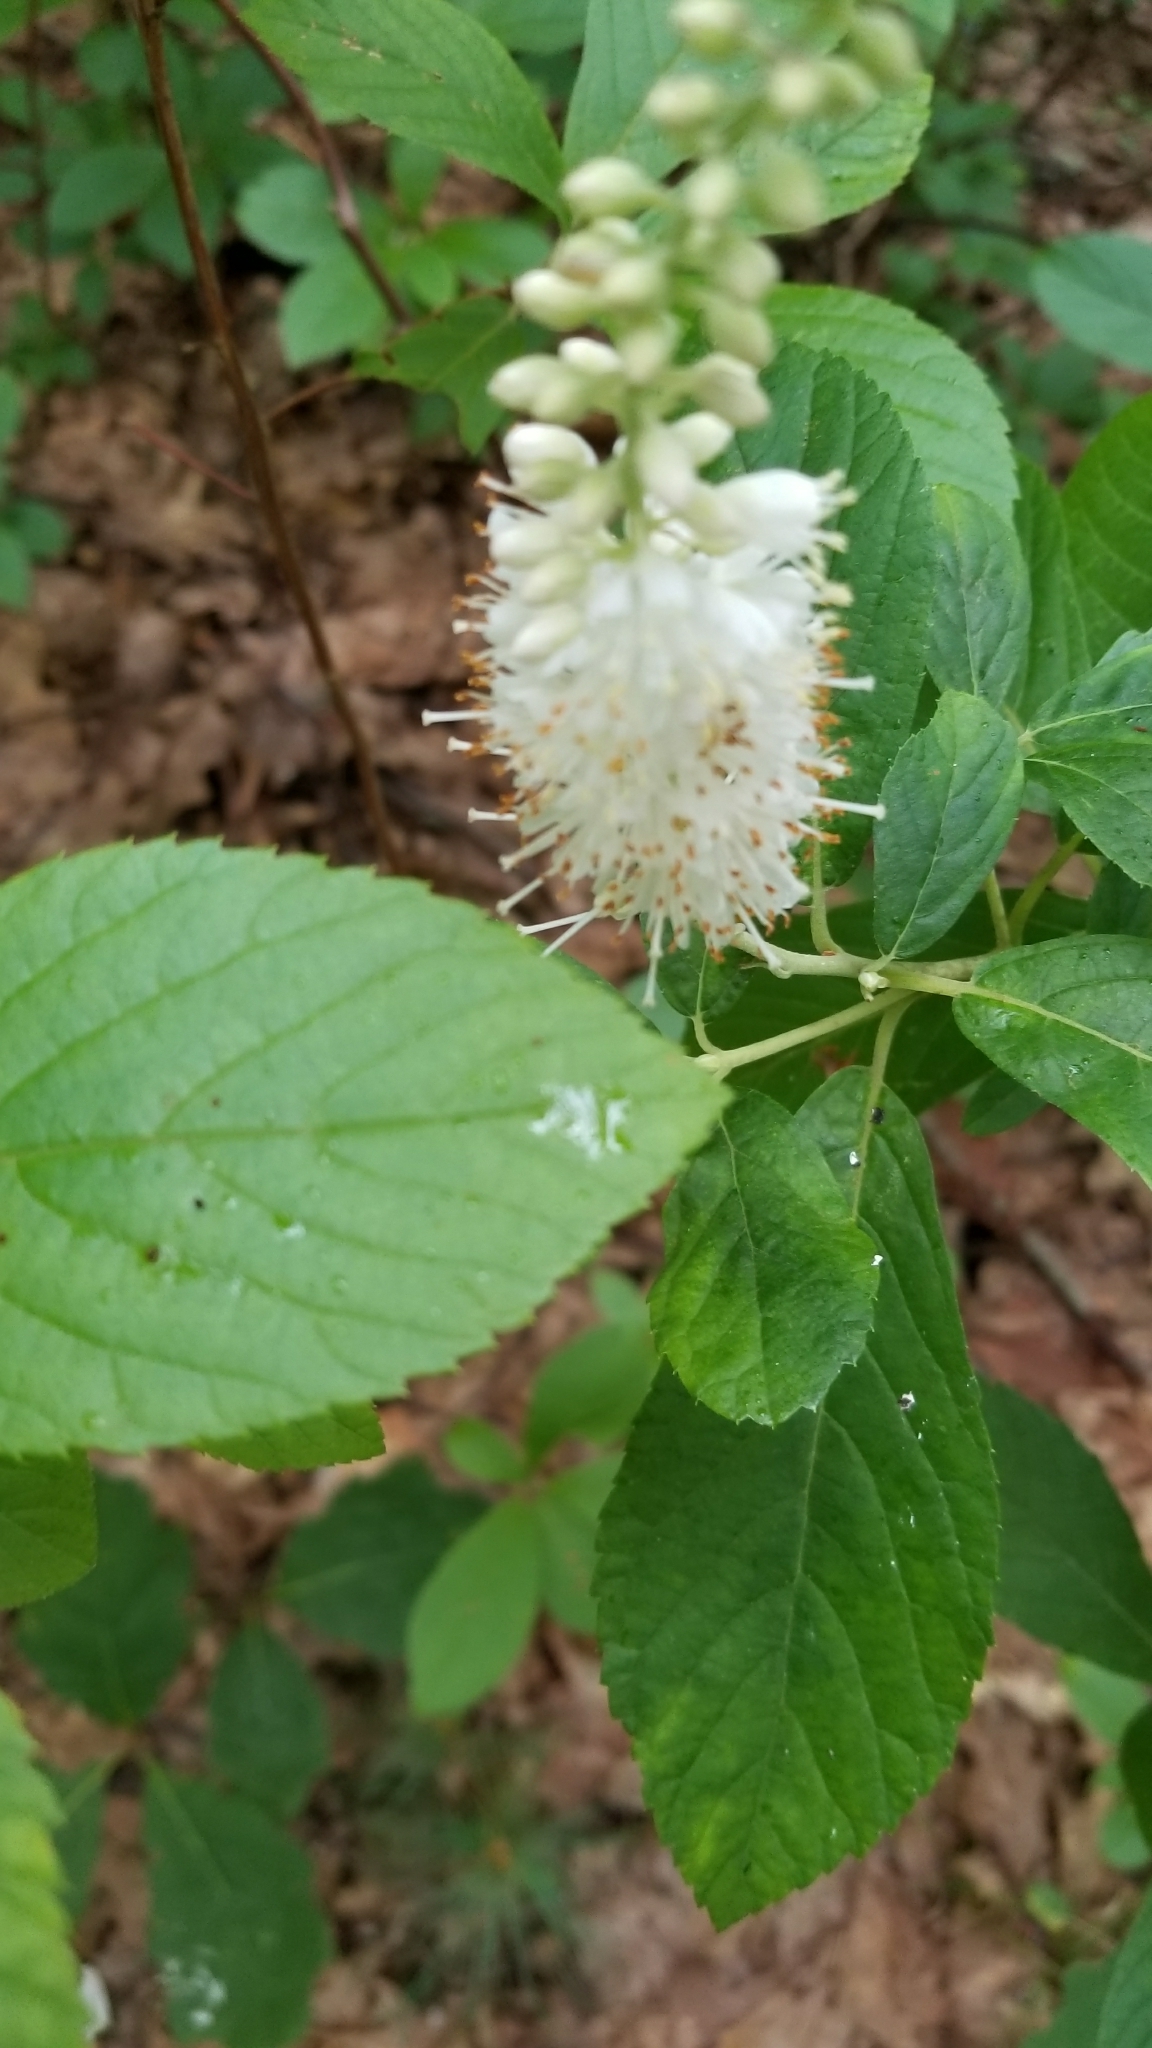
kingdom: Plantae
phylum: Tracheophyta
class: Magnoliopsida
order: Ericales
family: Clethraceae
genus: Clethra
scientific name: Clethra alnifolia
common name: Sweet pepperbush
